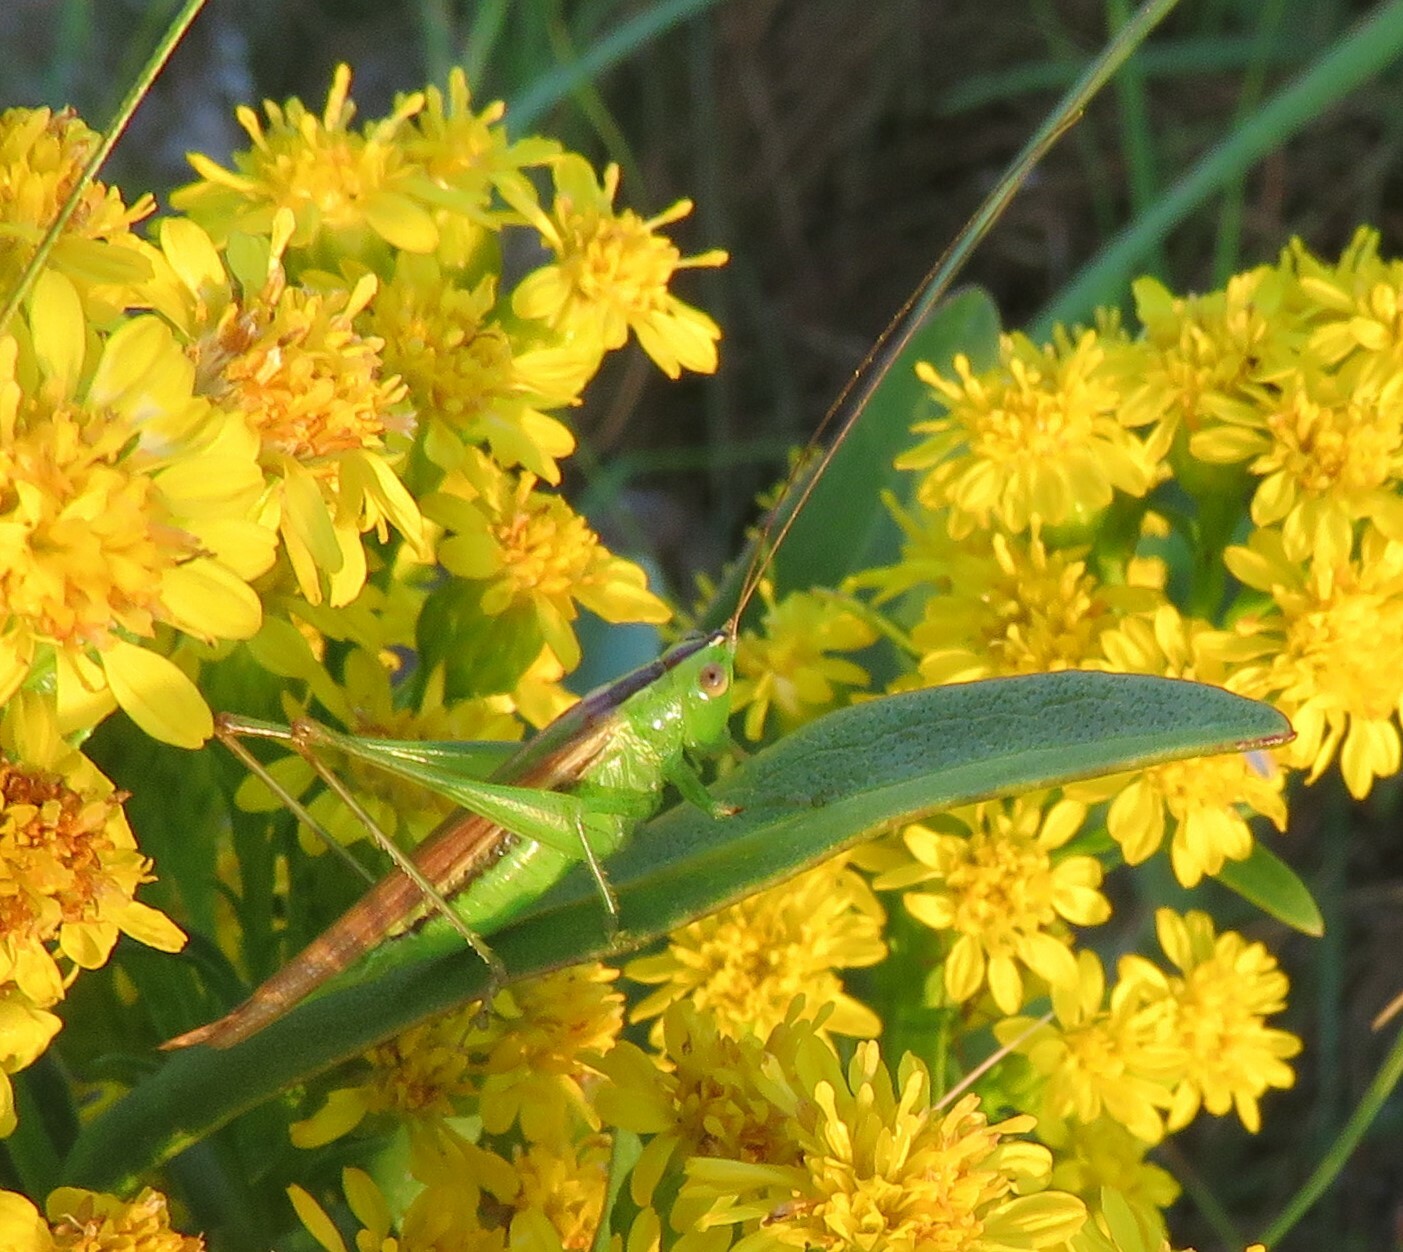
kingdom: Animalia
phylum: Arthropoda
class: Insecta
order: Orthoptera
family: Tettigoniidae
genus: Conocephalus
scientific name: Conocephalus fasciatus
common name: Slender meadow katydid
